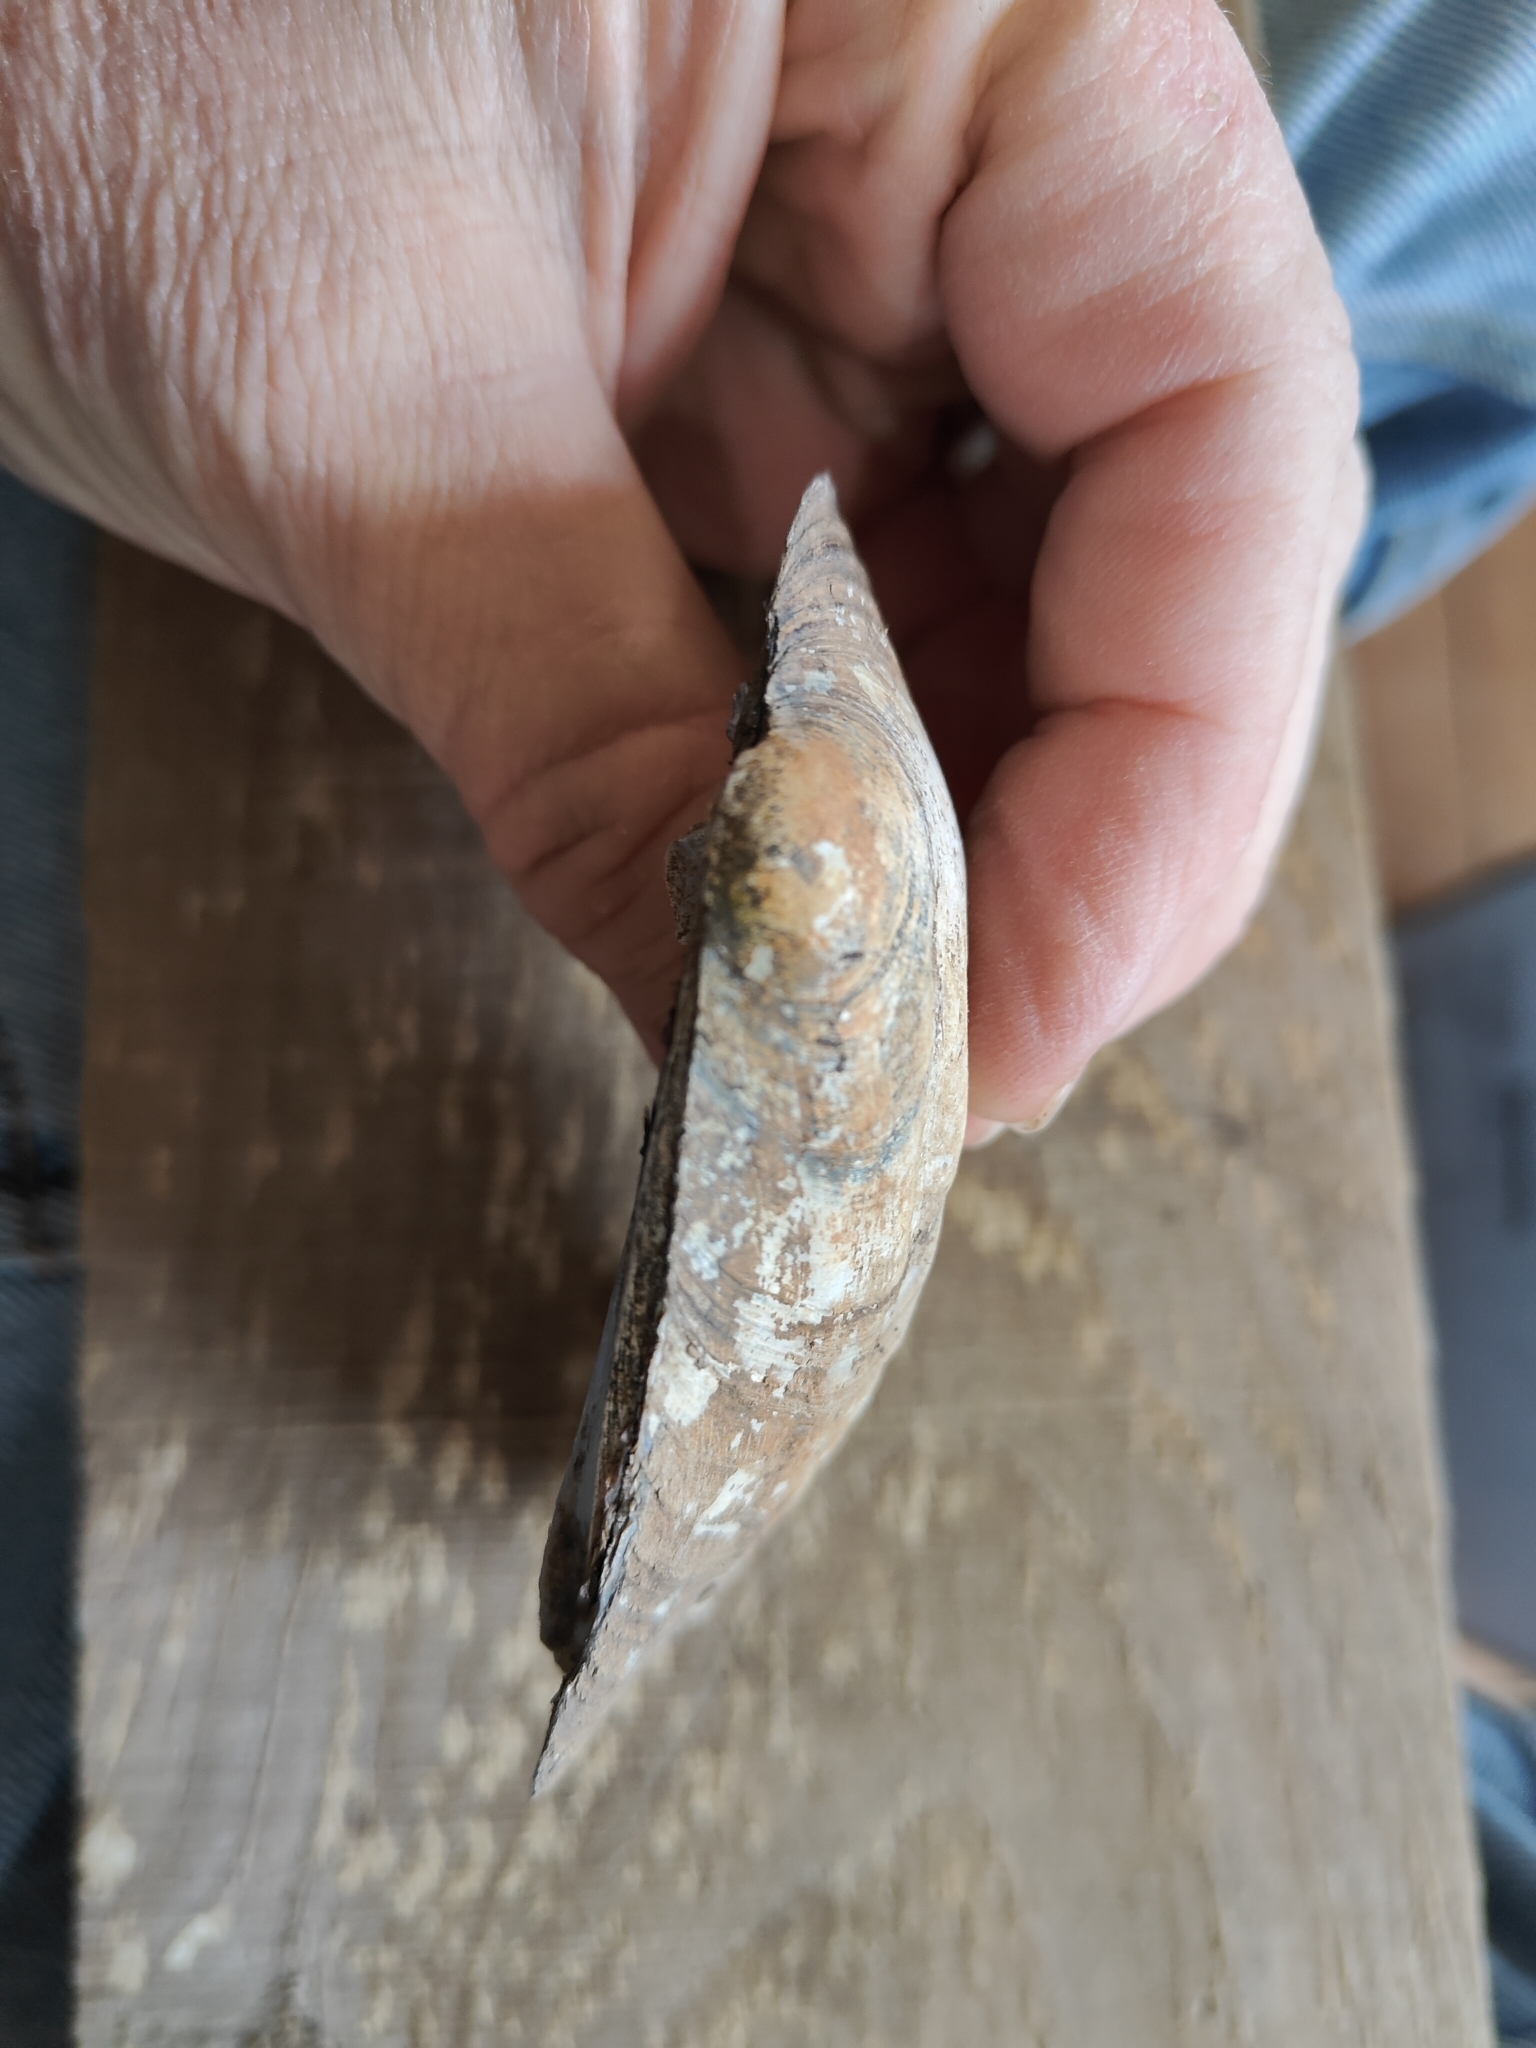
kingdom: Animalia
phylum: Mollusca
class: Bivalvia
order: Unionida
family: Unionidae
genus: Amblema
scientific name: Amblema plicata
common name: Threeridge
